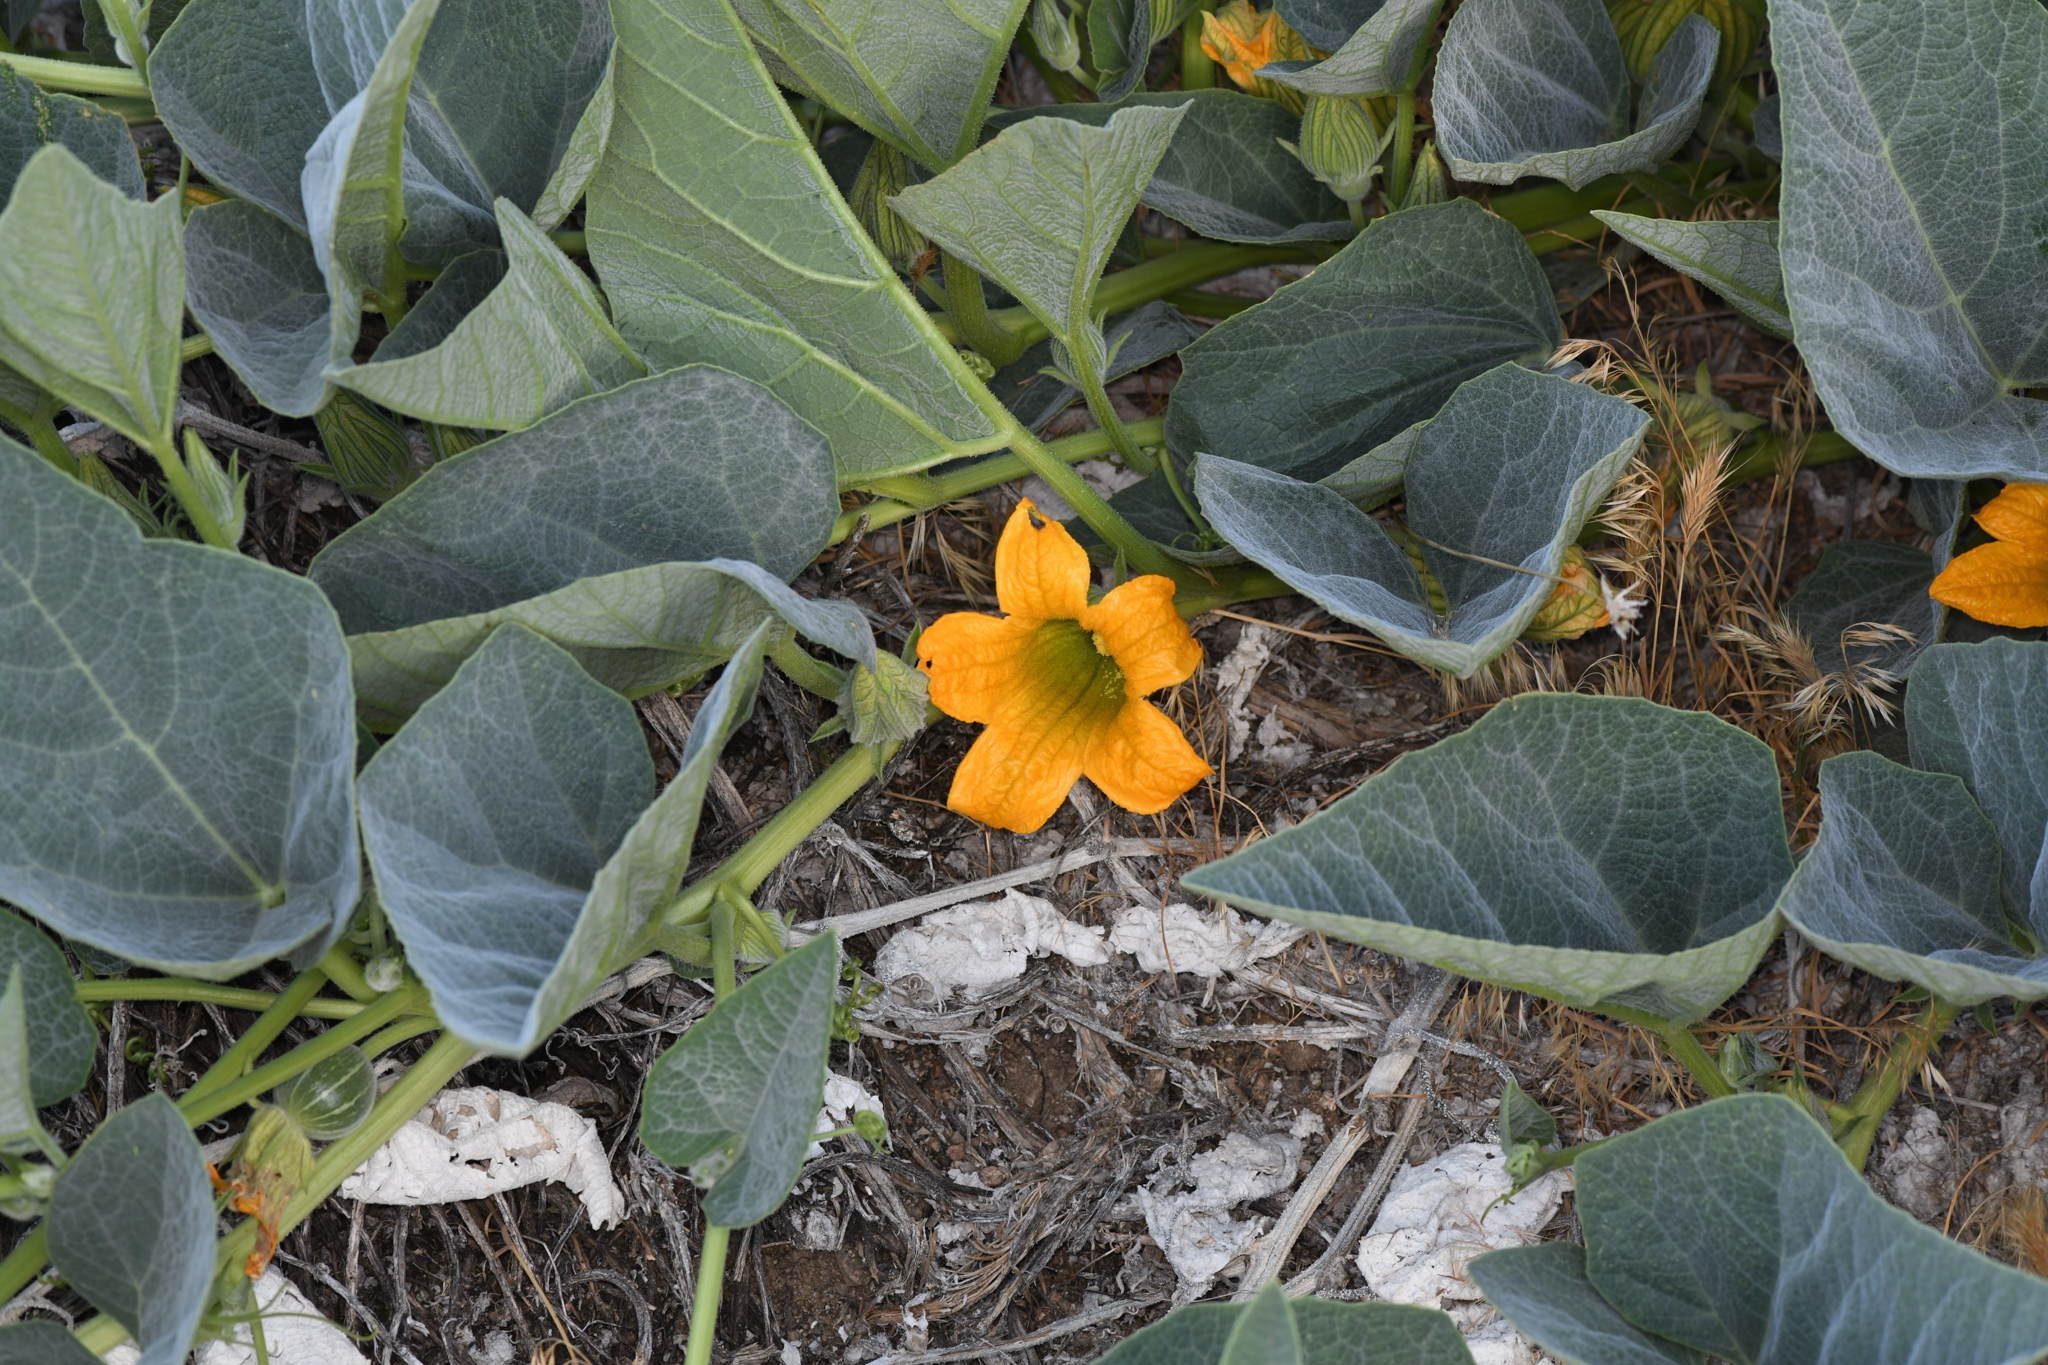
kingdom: Plantae
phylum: Tracheophyta
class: Magnoliopsida
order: Cucurbitales
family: Cucurbitaceae
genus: Cucurbita
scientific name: Cucurbita foetidissima
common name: Buffalo gourd
